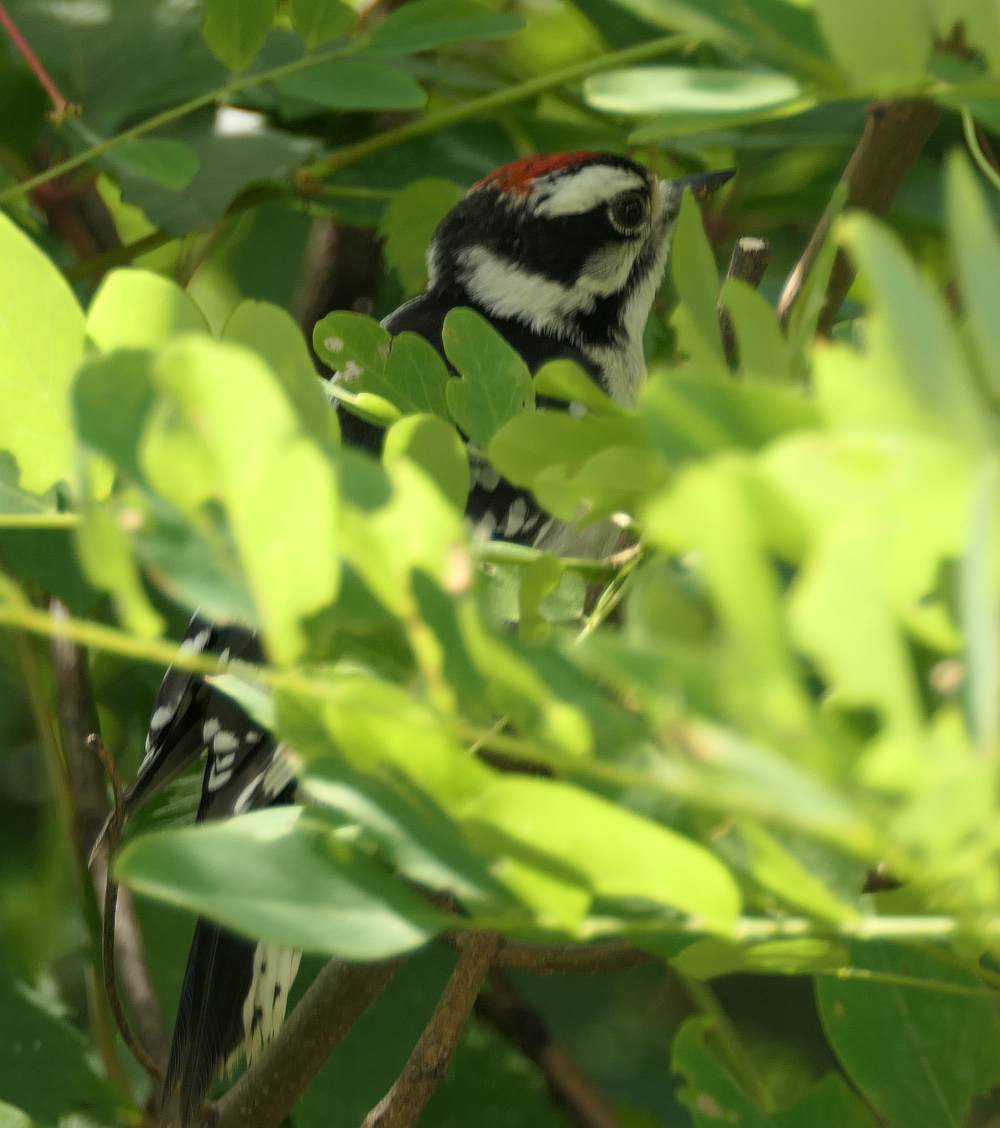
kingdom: Animalia
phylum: Chordata
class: Aves
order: Piciformes
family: Picidae
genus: Dryobates
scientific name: Dryobates pubescens
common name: Downy woodpecker
